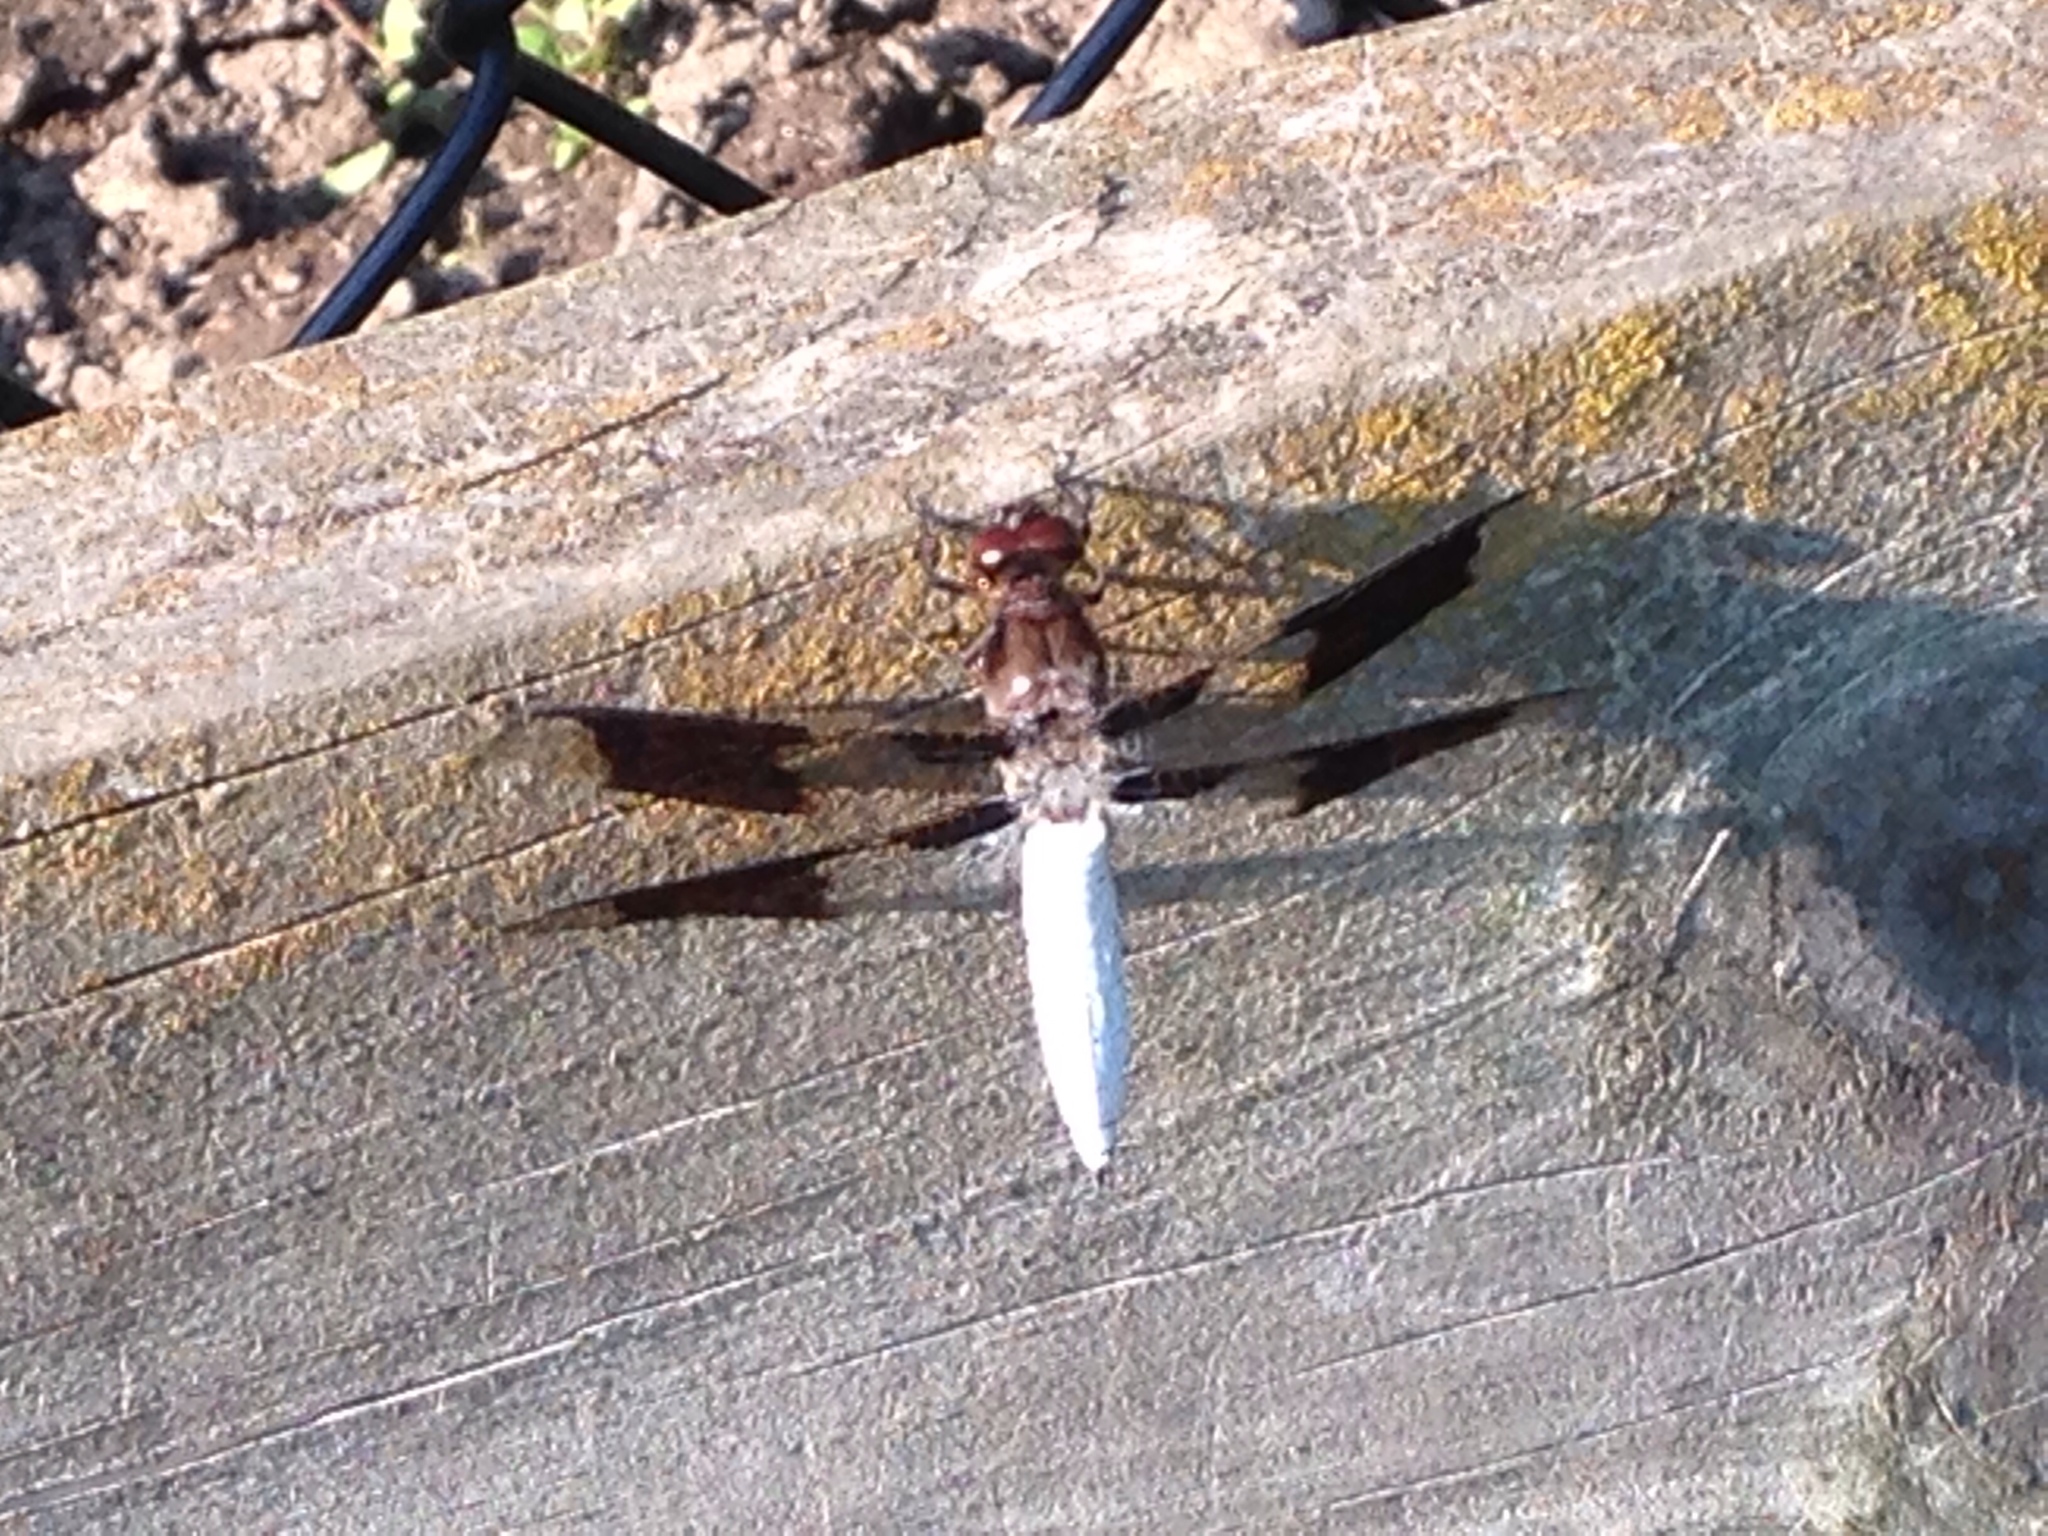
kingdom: Animalia
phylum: Arthropoda
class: Insecta
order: Odonata
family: Libellulidae
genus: Plathemis
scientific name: Plathemis lydia
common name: Common whitetail
